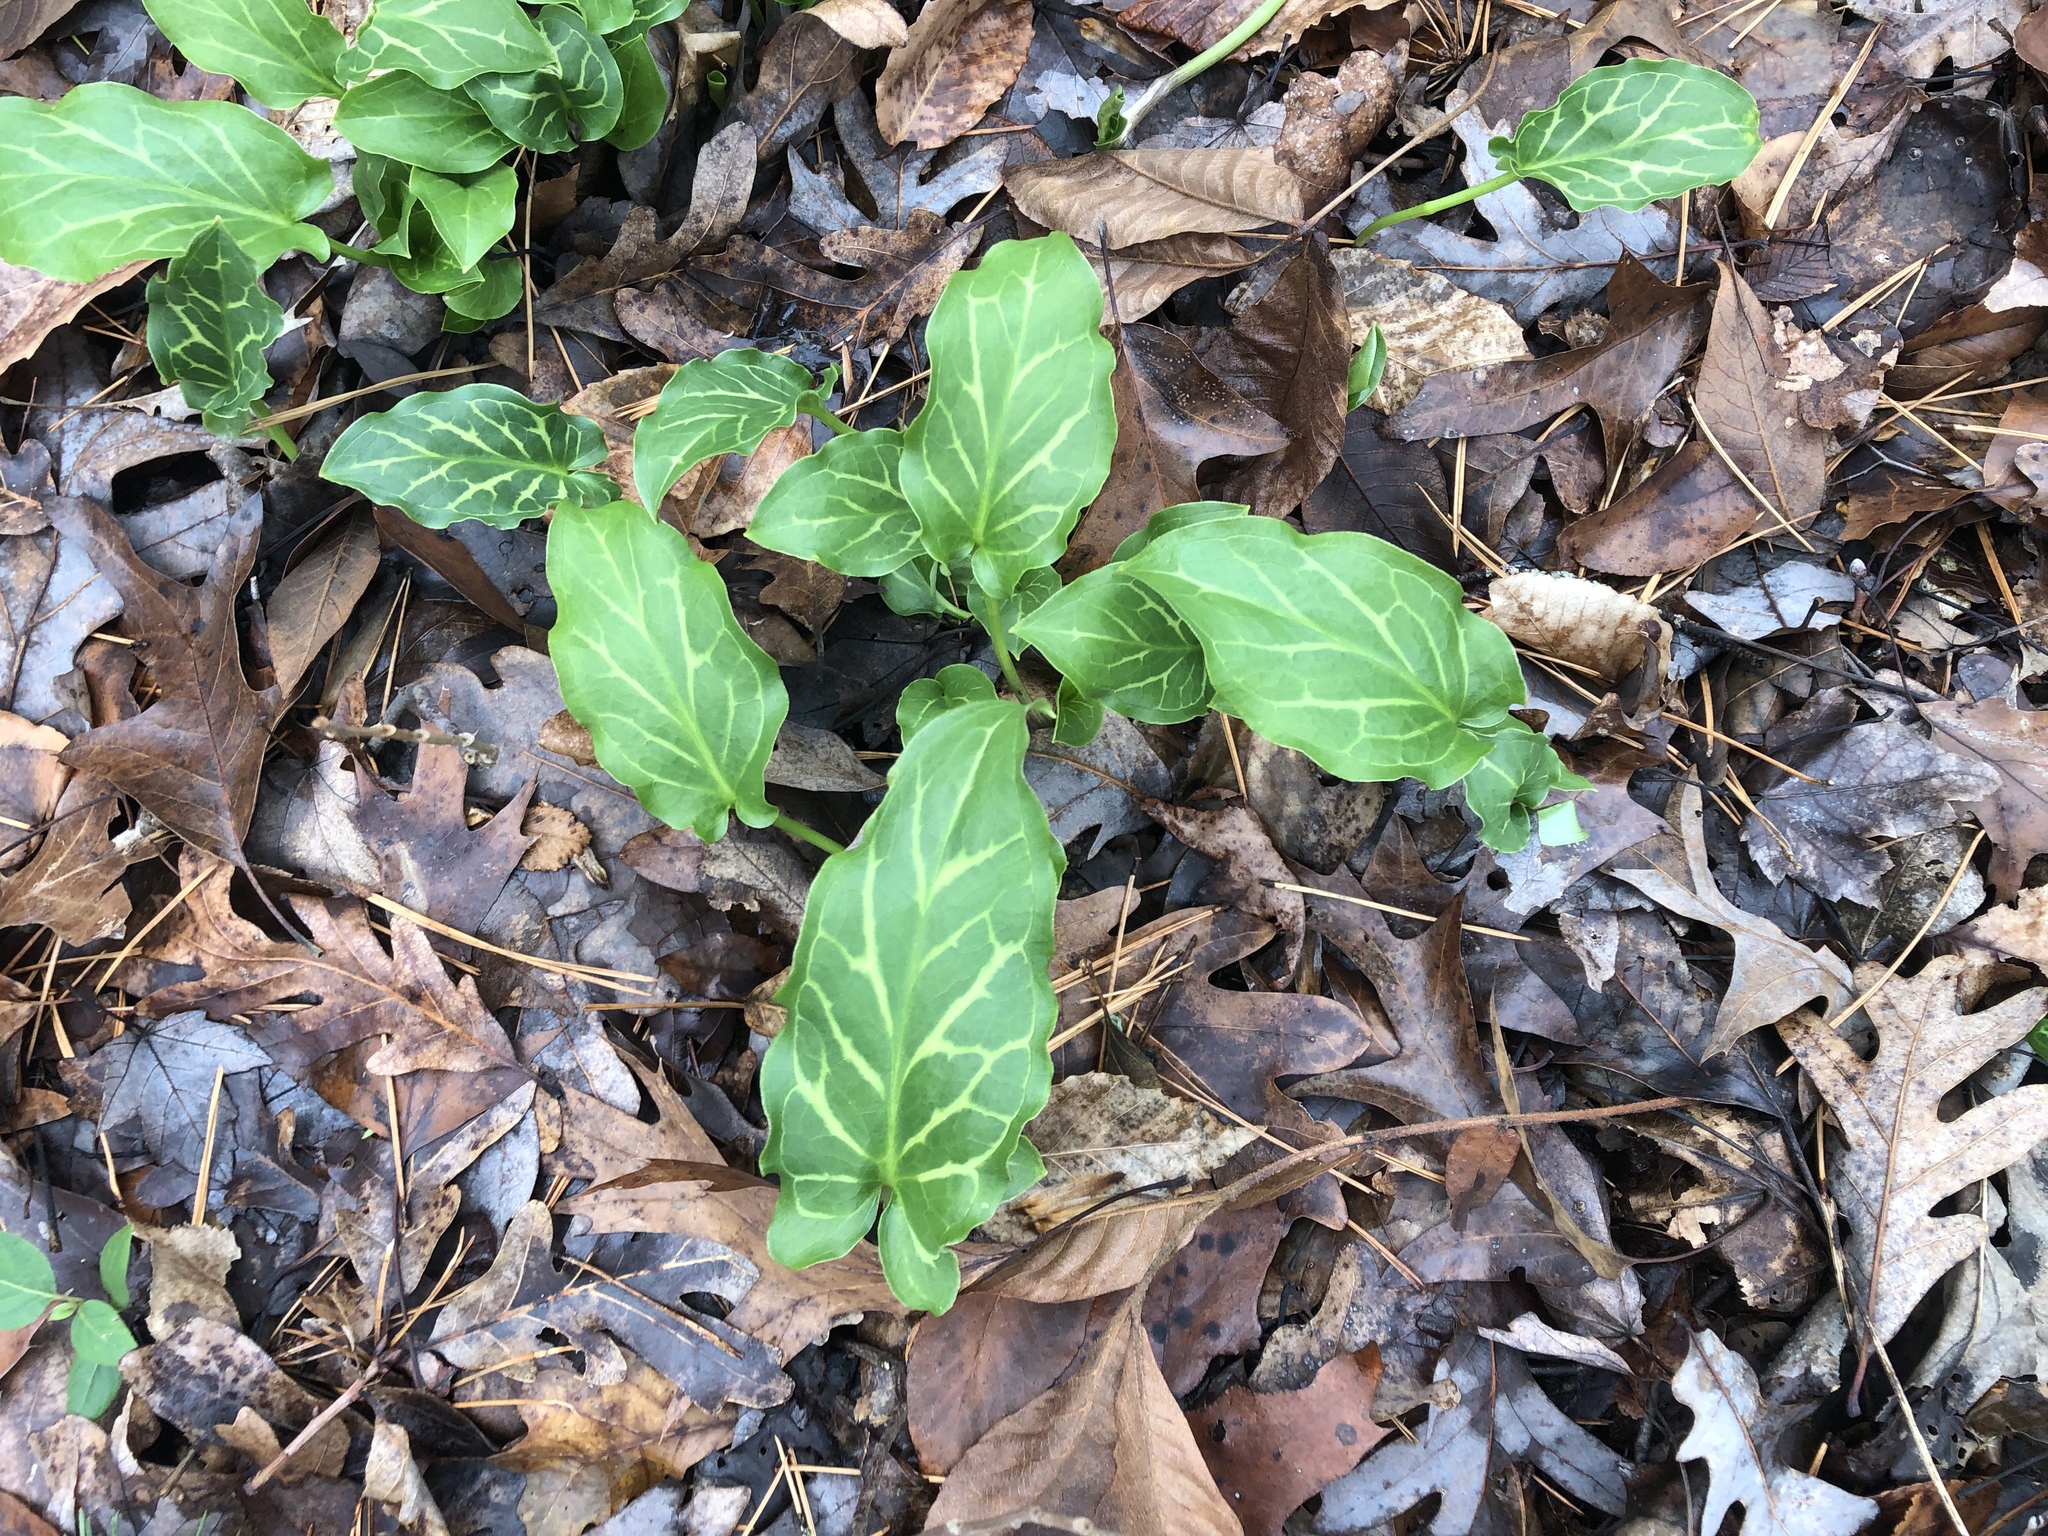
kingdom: Plantae
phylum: Tracheophyta
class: Liliopsida
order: Alismatales
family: Araceae
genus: Arum
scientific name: Arum italicum
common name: Italian lords-and-ladies
